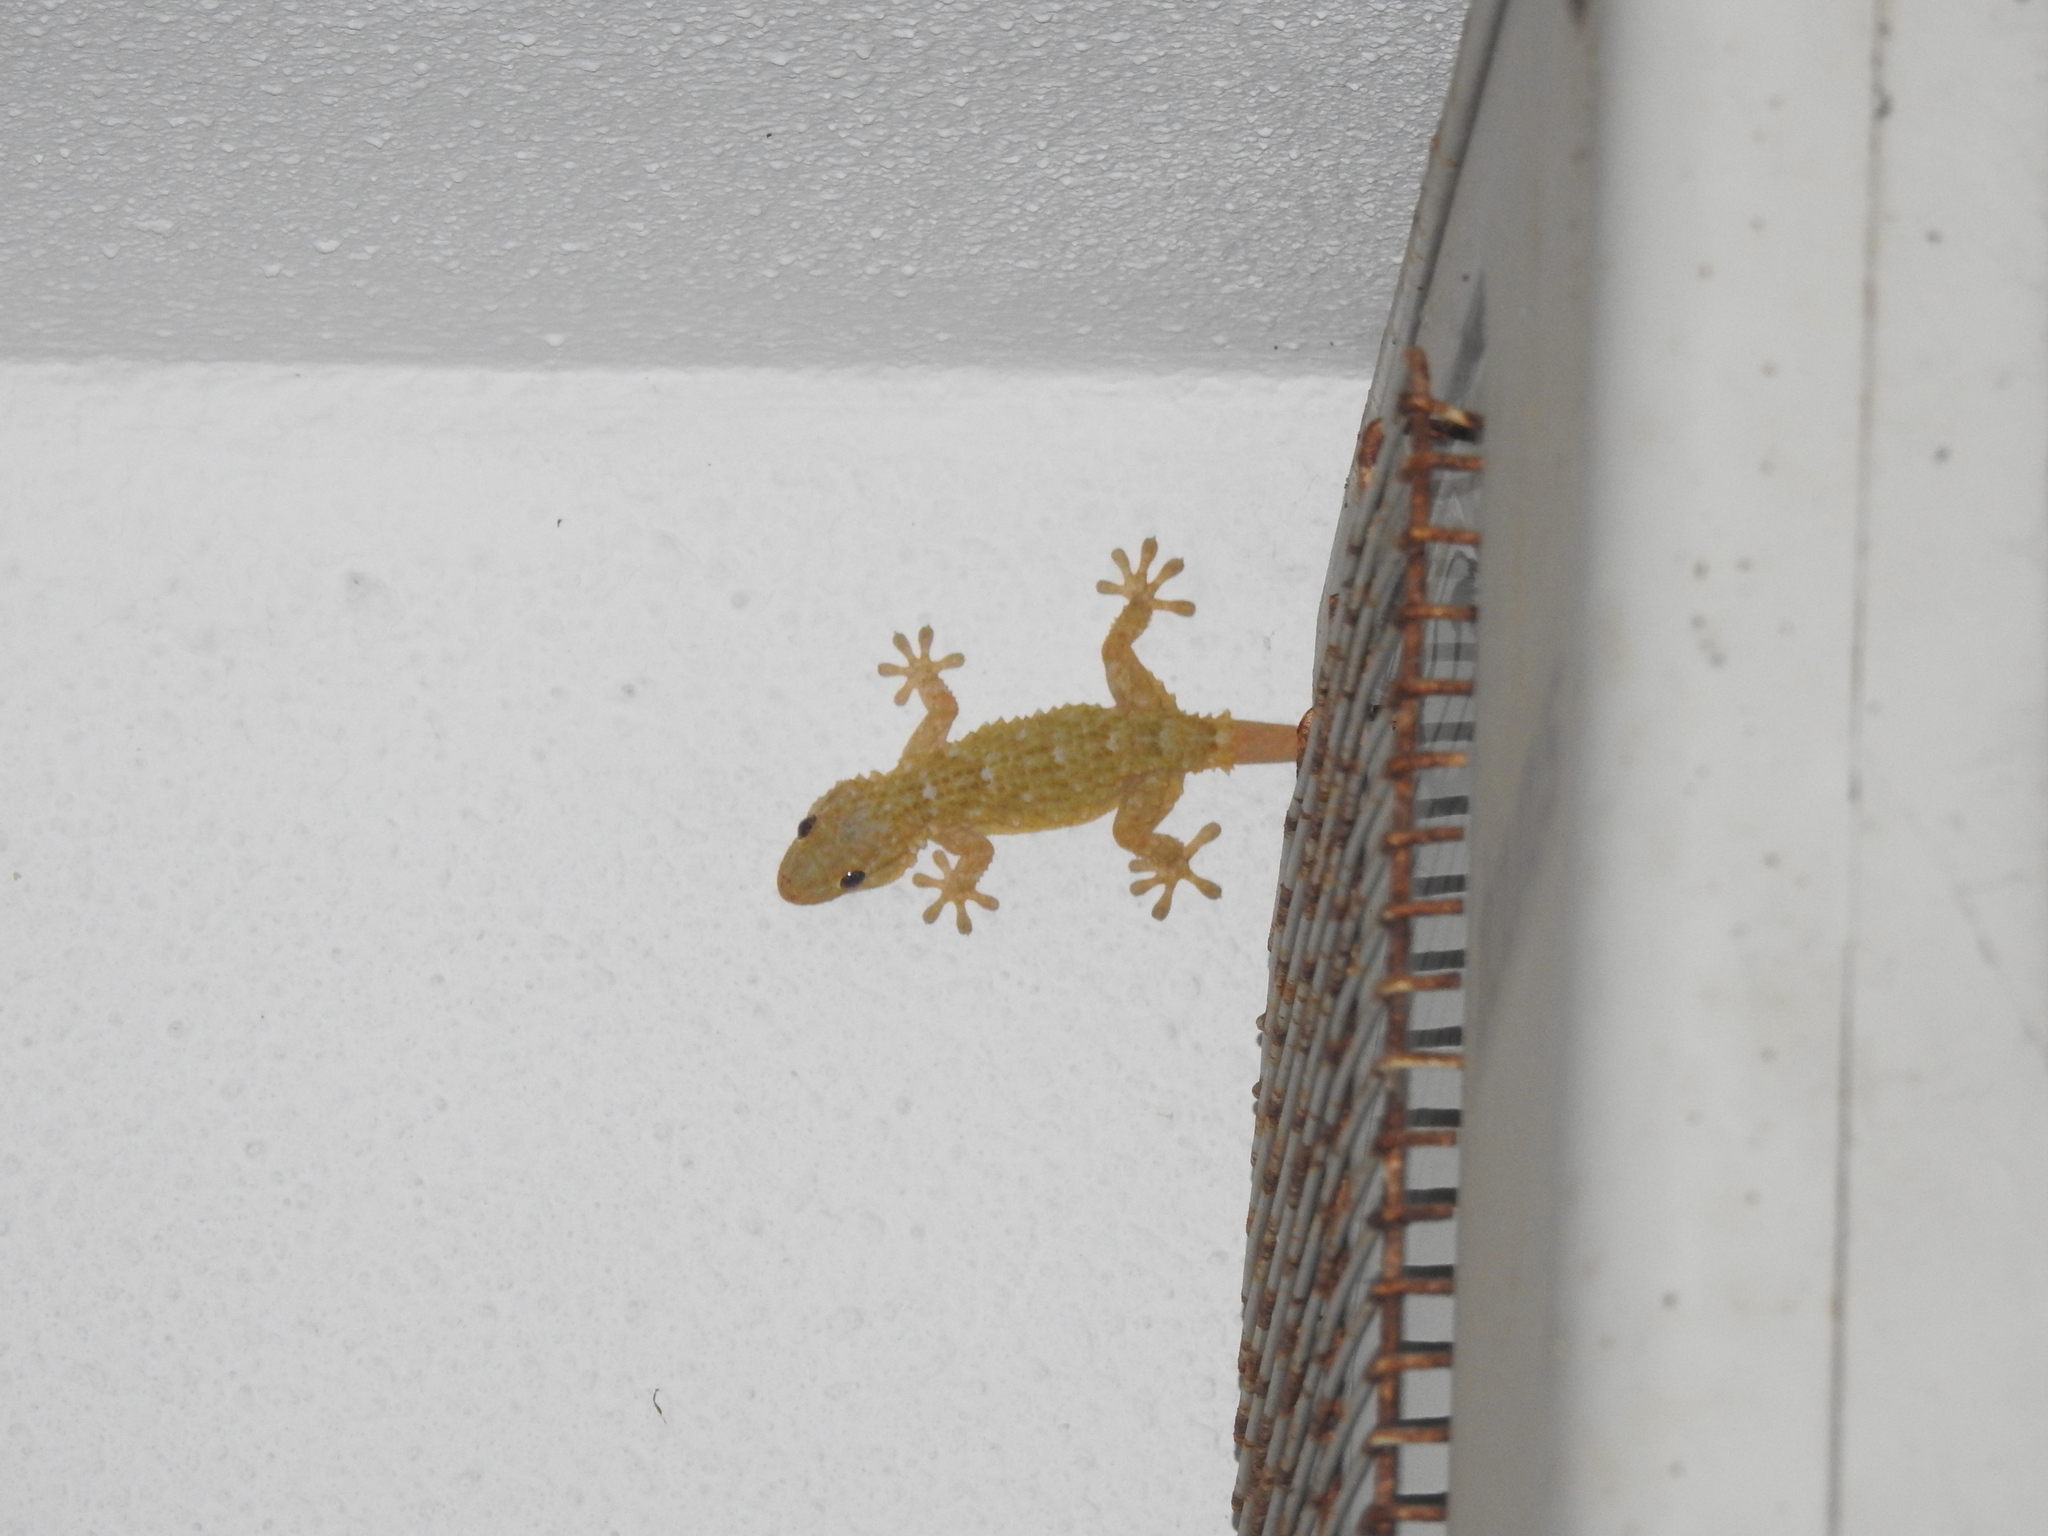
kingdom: Animalia
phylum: Chordata
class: Squamata
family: Phyllodactylidae
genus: Tarentola
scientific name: Tarentola mauritanica
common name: Moorish gecko
